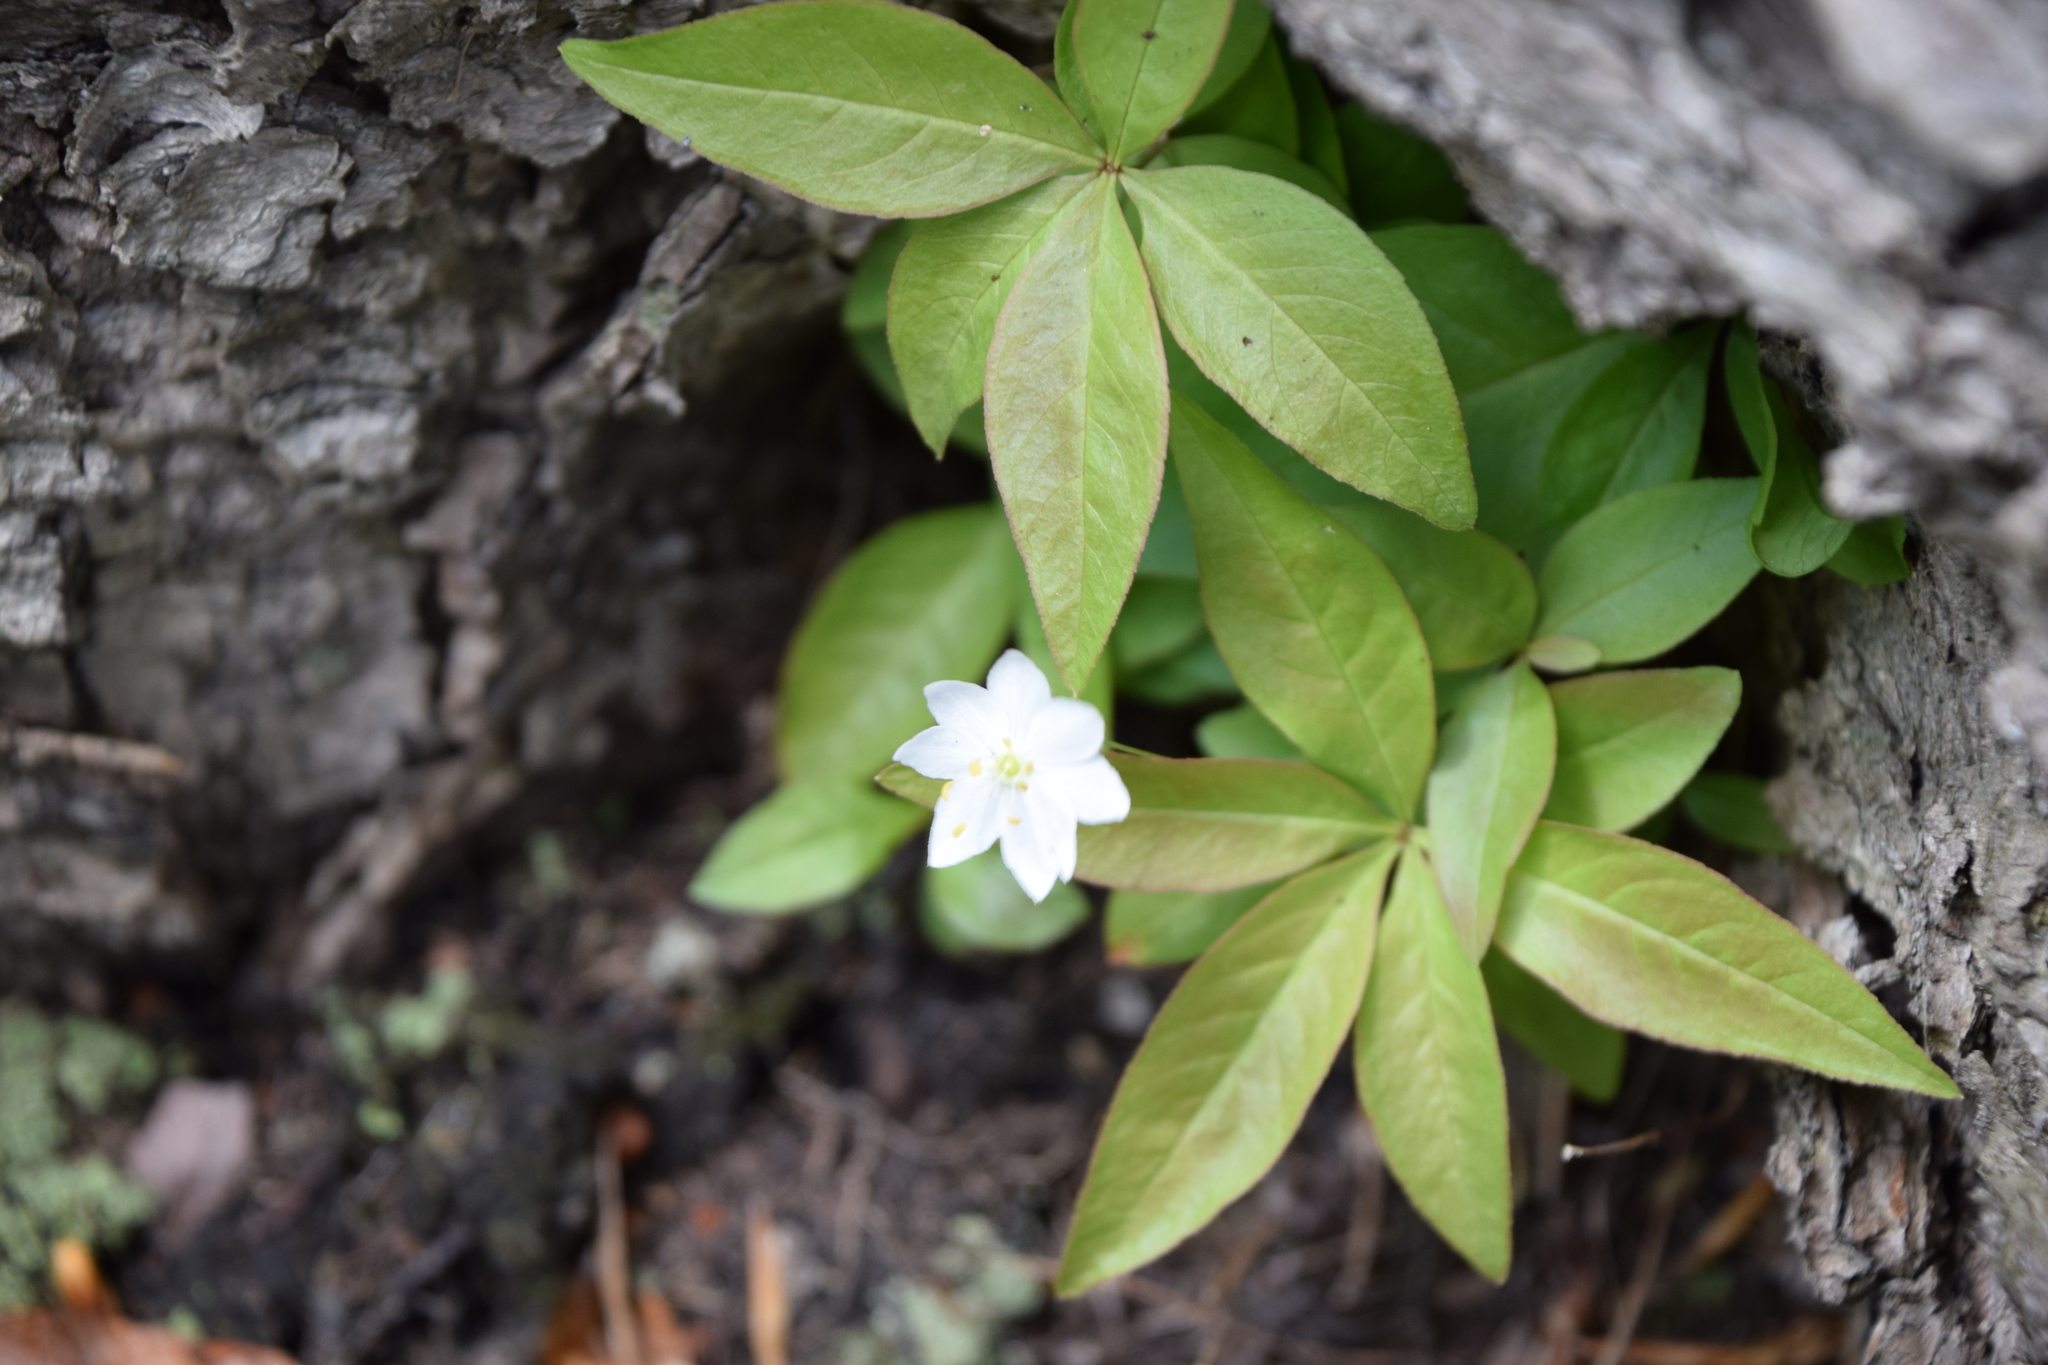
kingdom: Plantae
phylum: Tracheophyta
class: Magnoliopsida
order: Ericales
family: Primulaceae
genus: Lysimachia
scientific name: Lysimachia borealis
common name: American starflower
